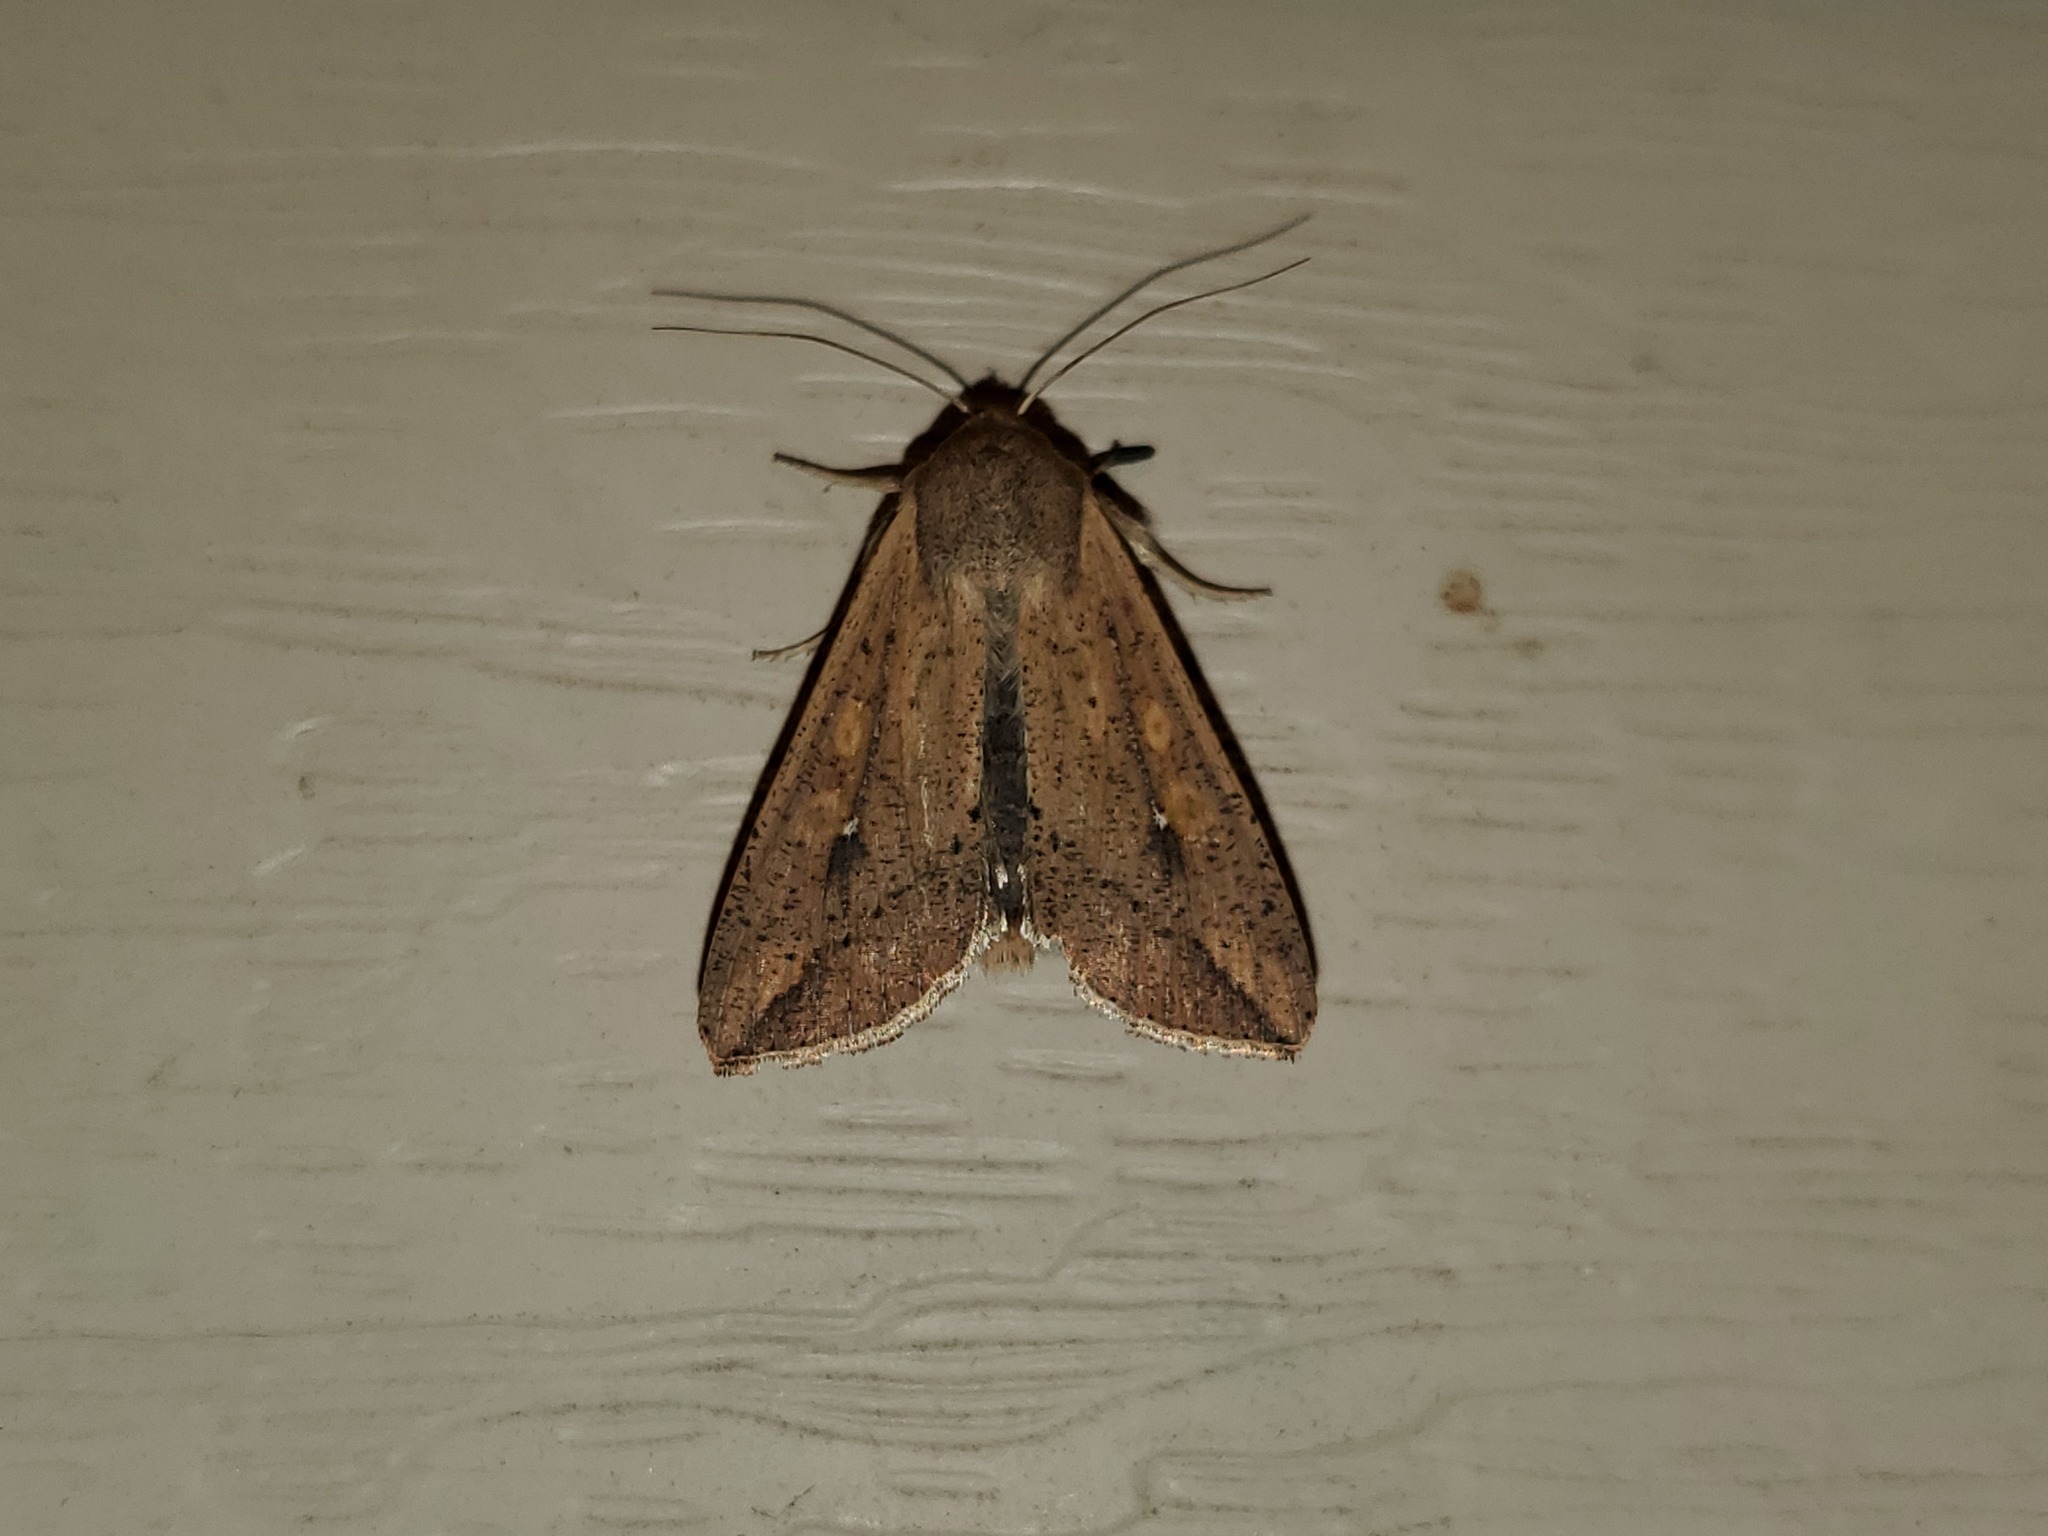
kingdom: Animalia
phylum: Arthropoda
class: Insecta
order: Lepidoptera
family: Noctuidae
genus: Mythimna
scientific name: Mythimna unipuncta
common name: White-speck
